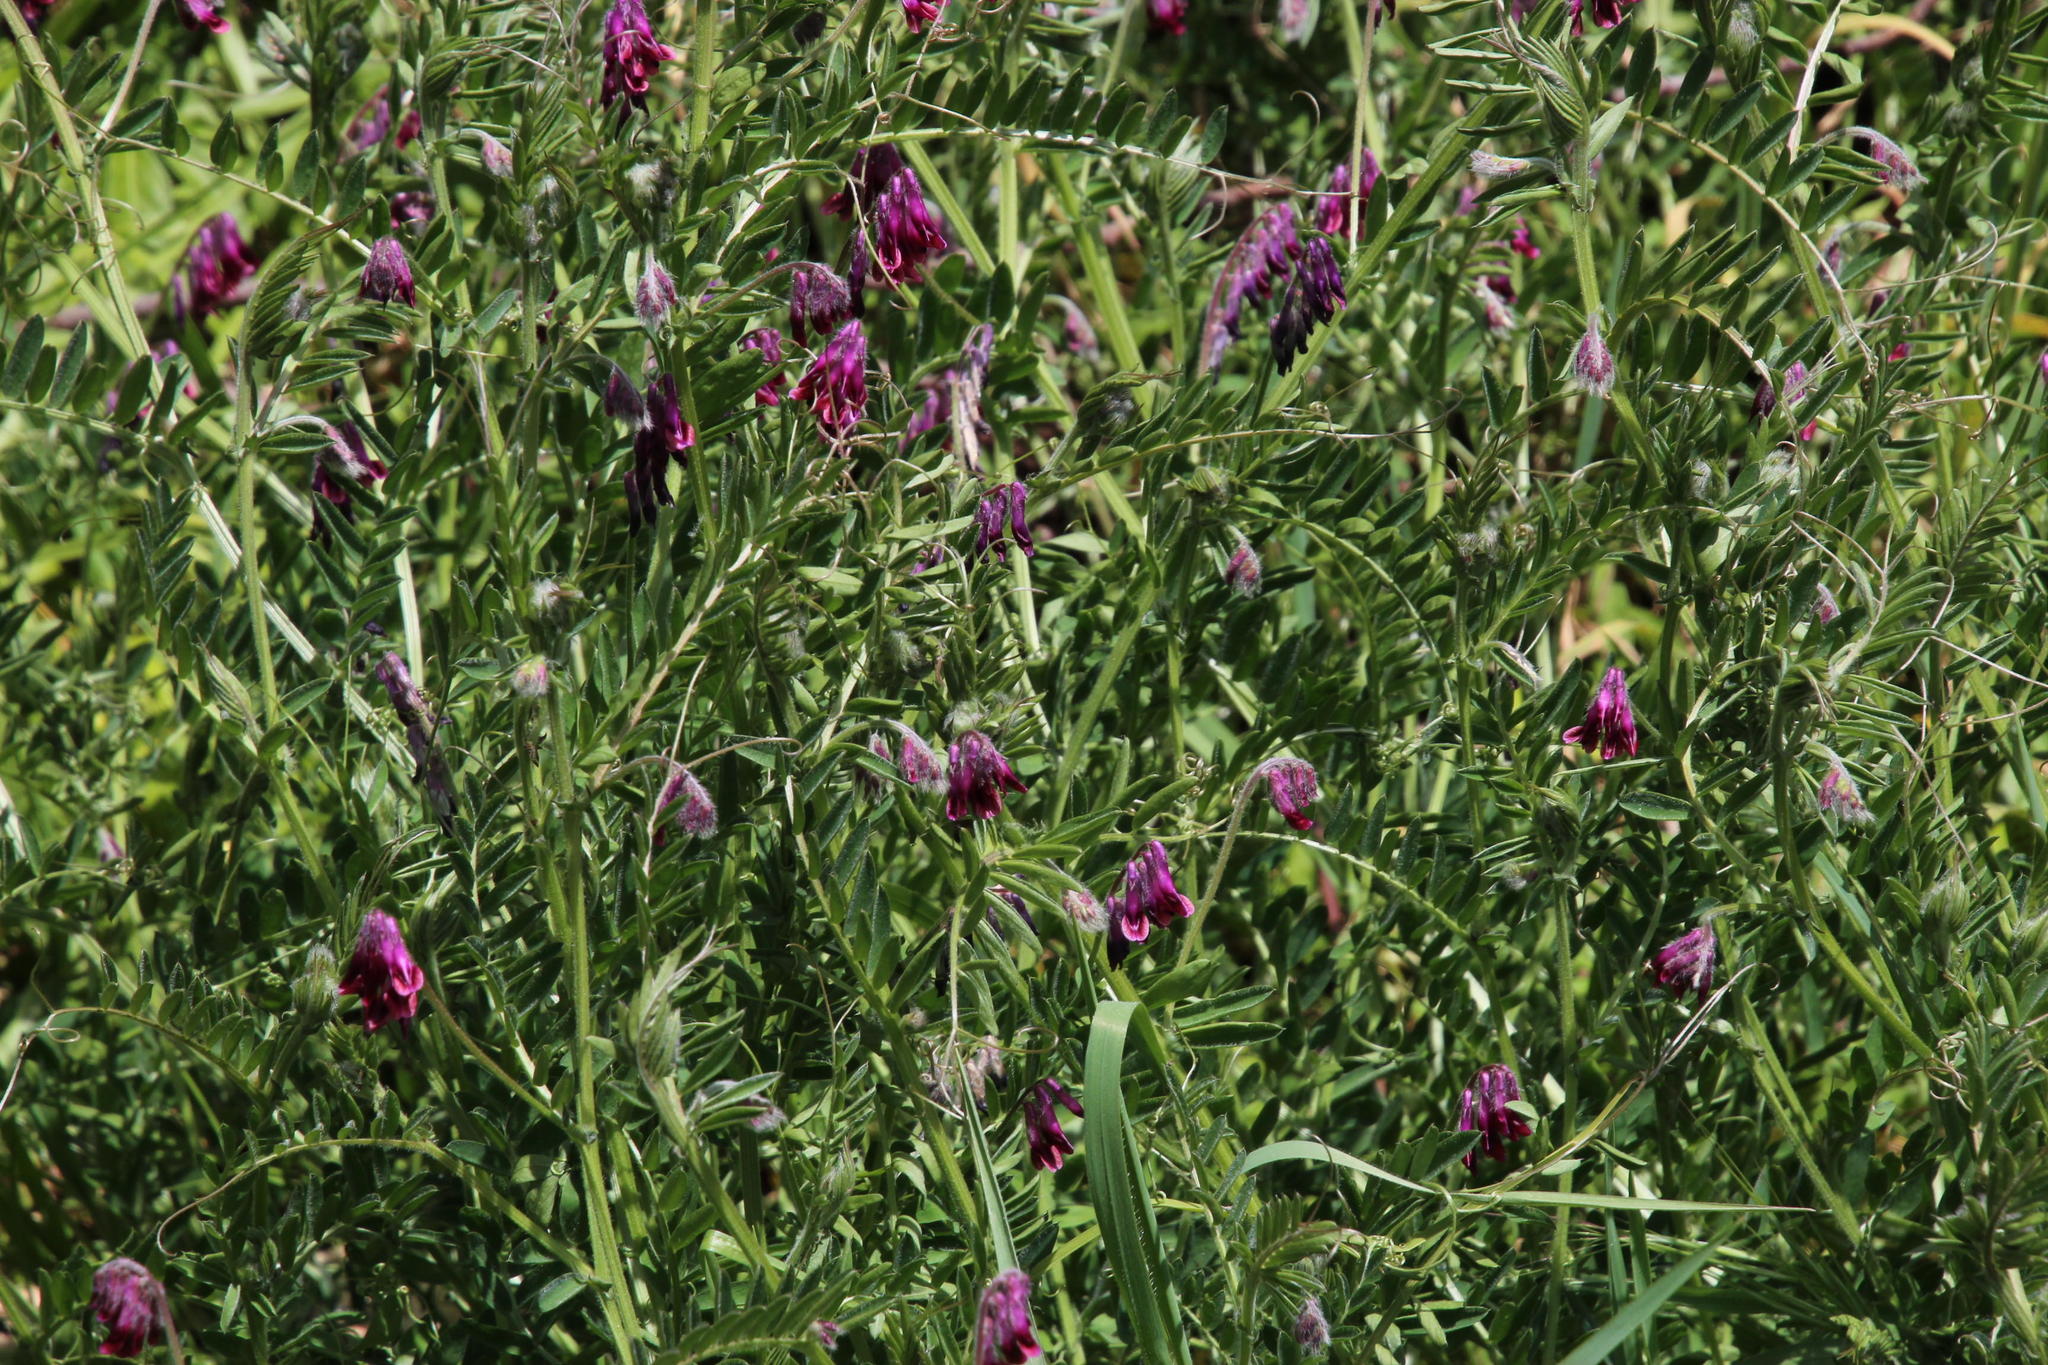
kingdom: Plantae
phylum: Tracheophyta
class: Magnoliopsida
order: Fabales
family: Fabaceae
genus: Vicia
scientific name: Vicia benghalensis
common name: Purple vetch
